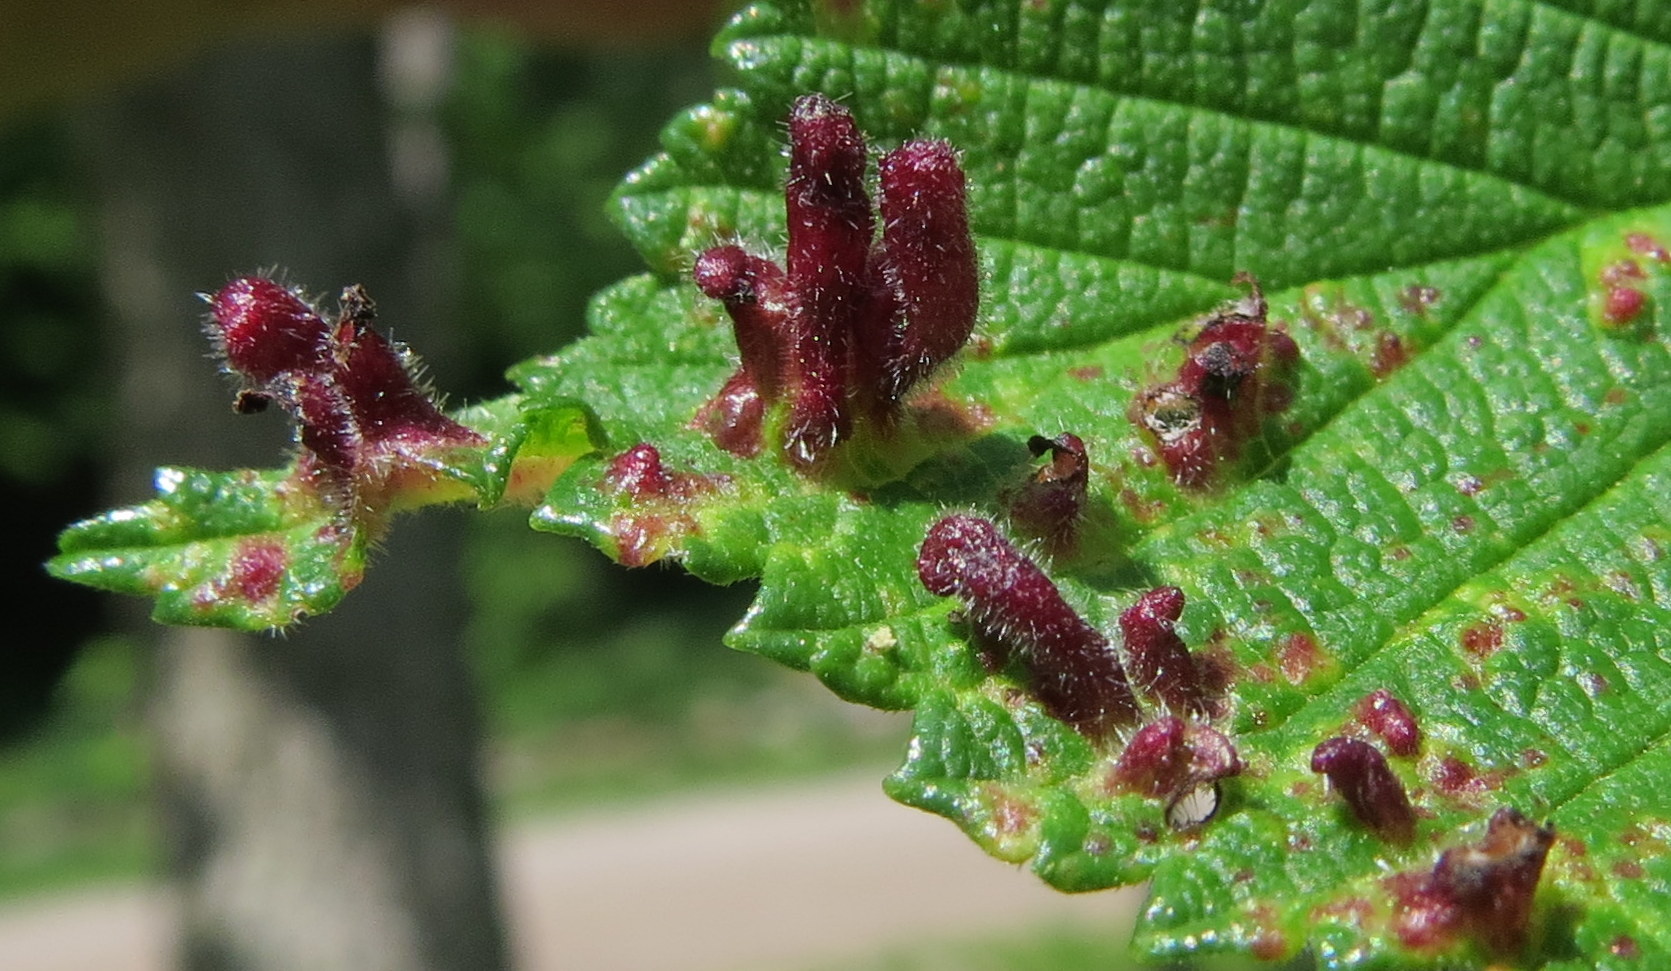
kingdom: Animalia
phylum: Arthropoda
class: Insecta
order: Hemiptera
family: Aphididae
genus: Tetraneura
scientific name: Tetraneura nigriabdominalis
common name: Aphid
